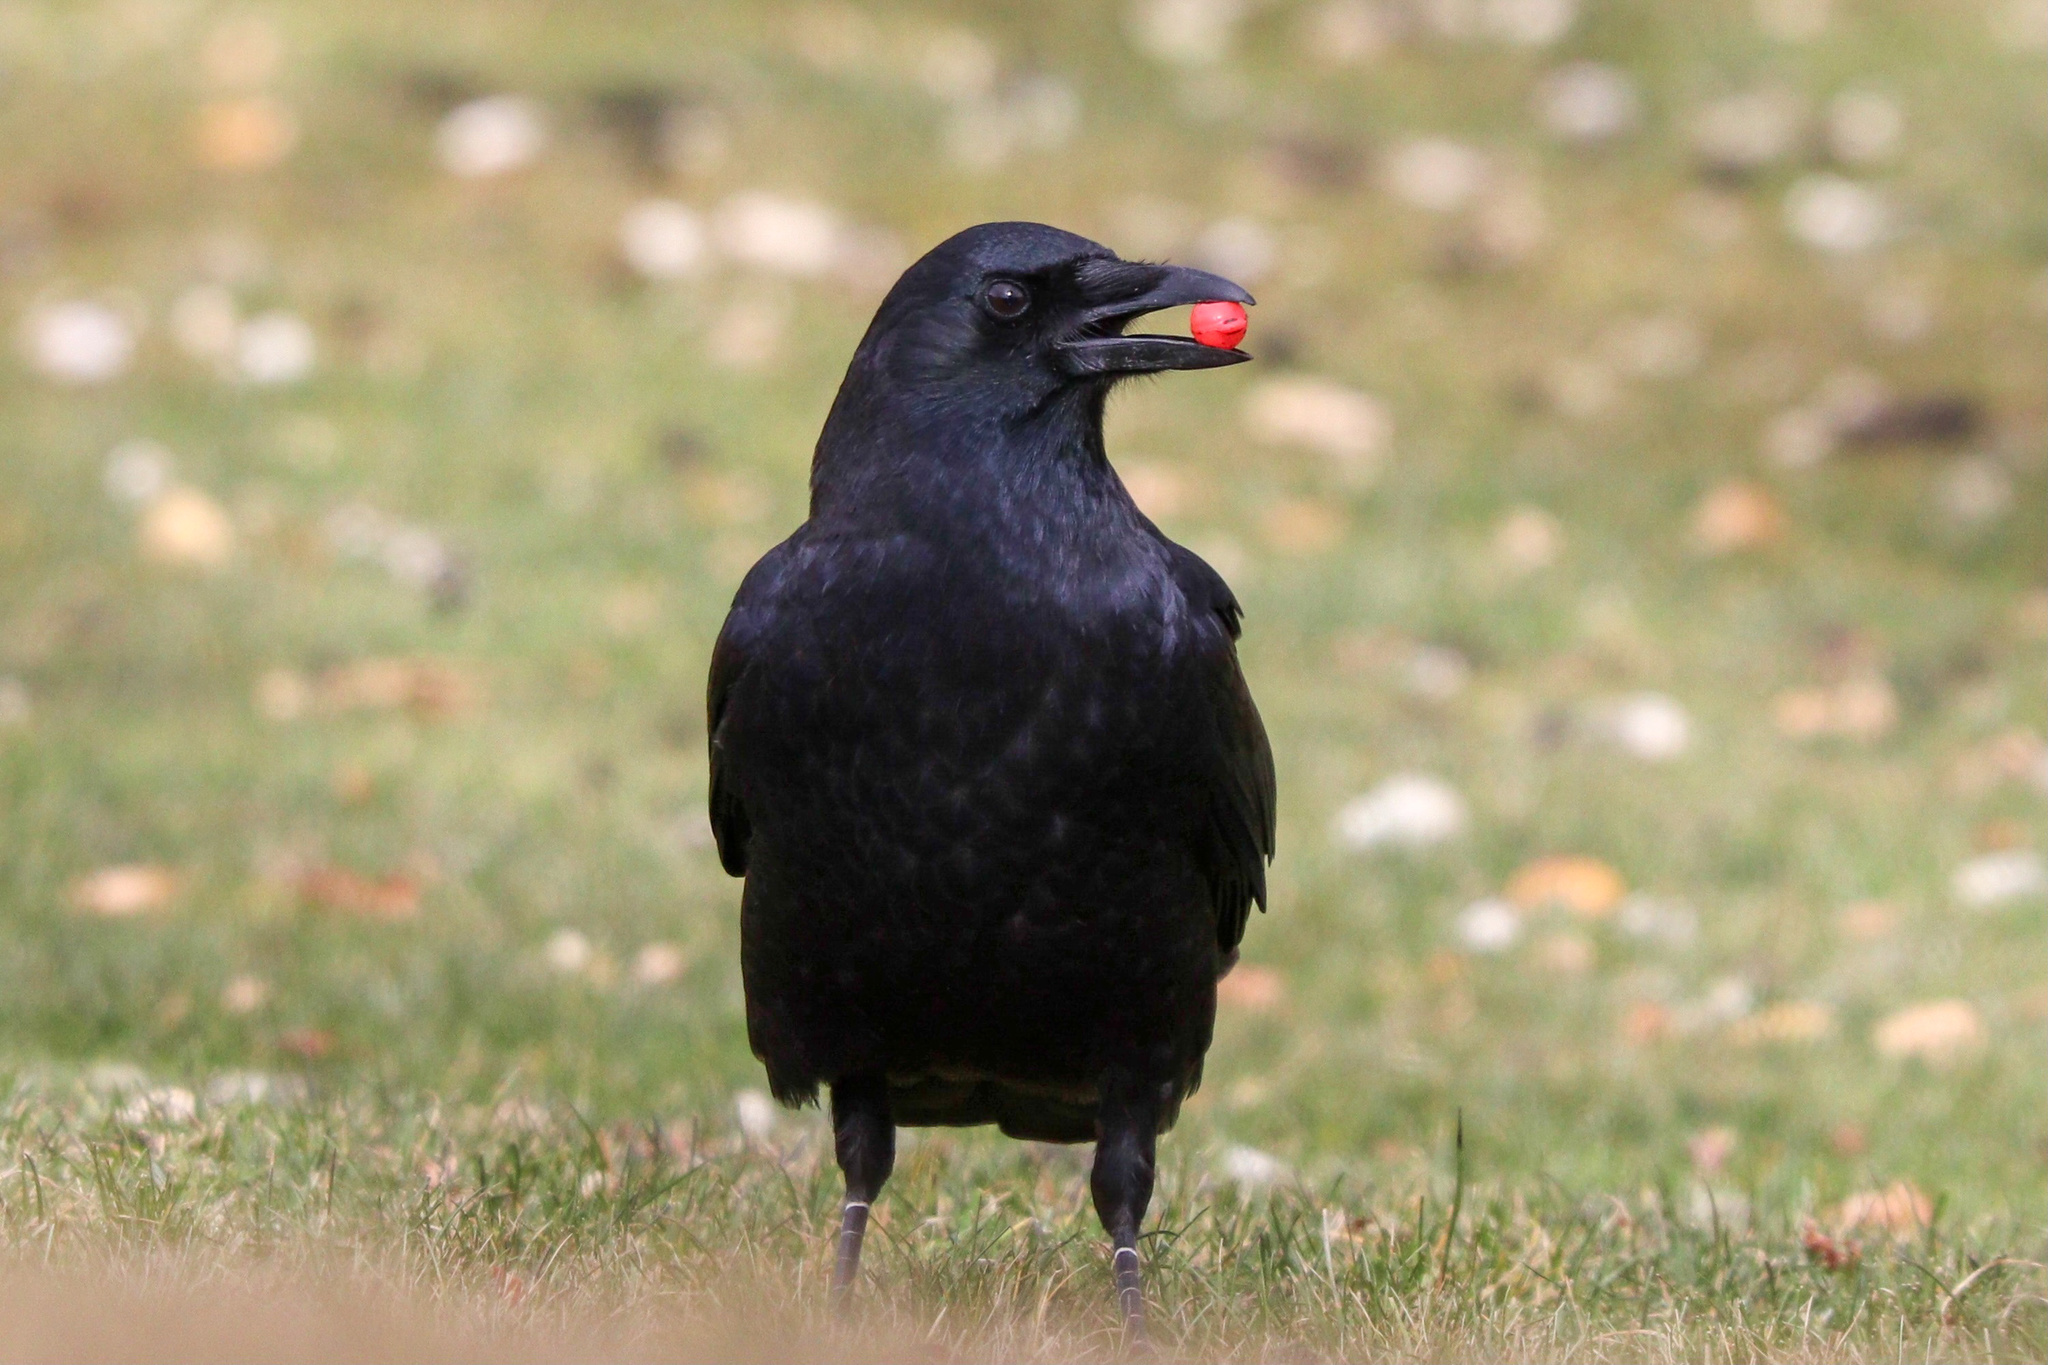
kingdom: Animalia
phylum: Chordata
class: Aves
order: Passeriformes
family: Corvidae
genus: Corvus
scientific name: Corvus brachyrhynchos
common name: American crow
